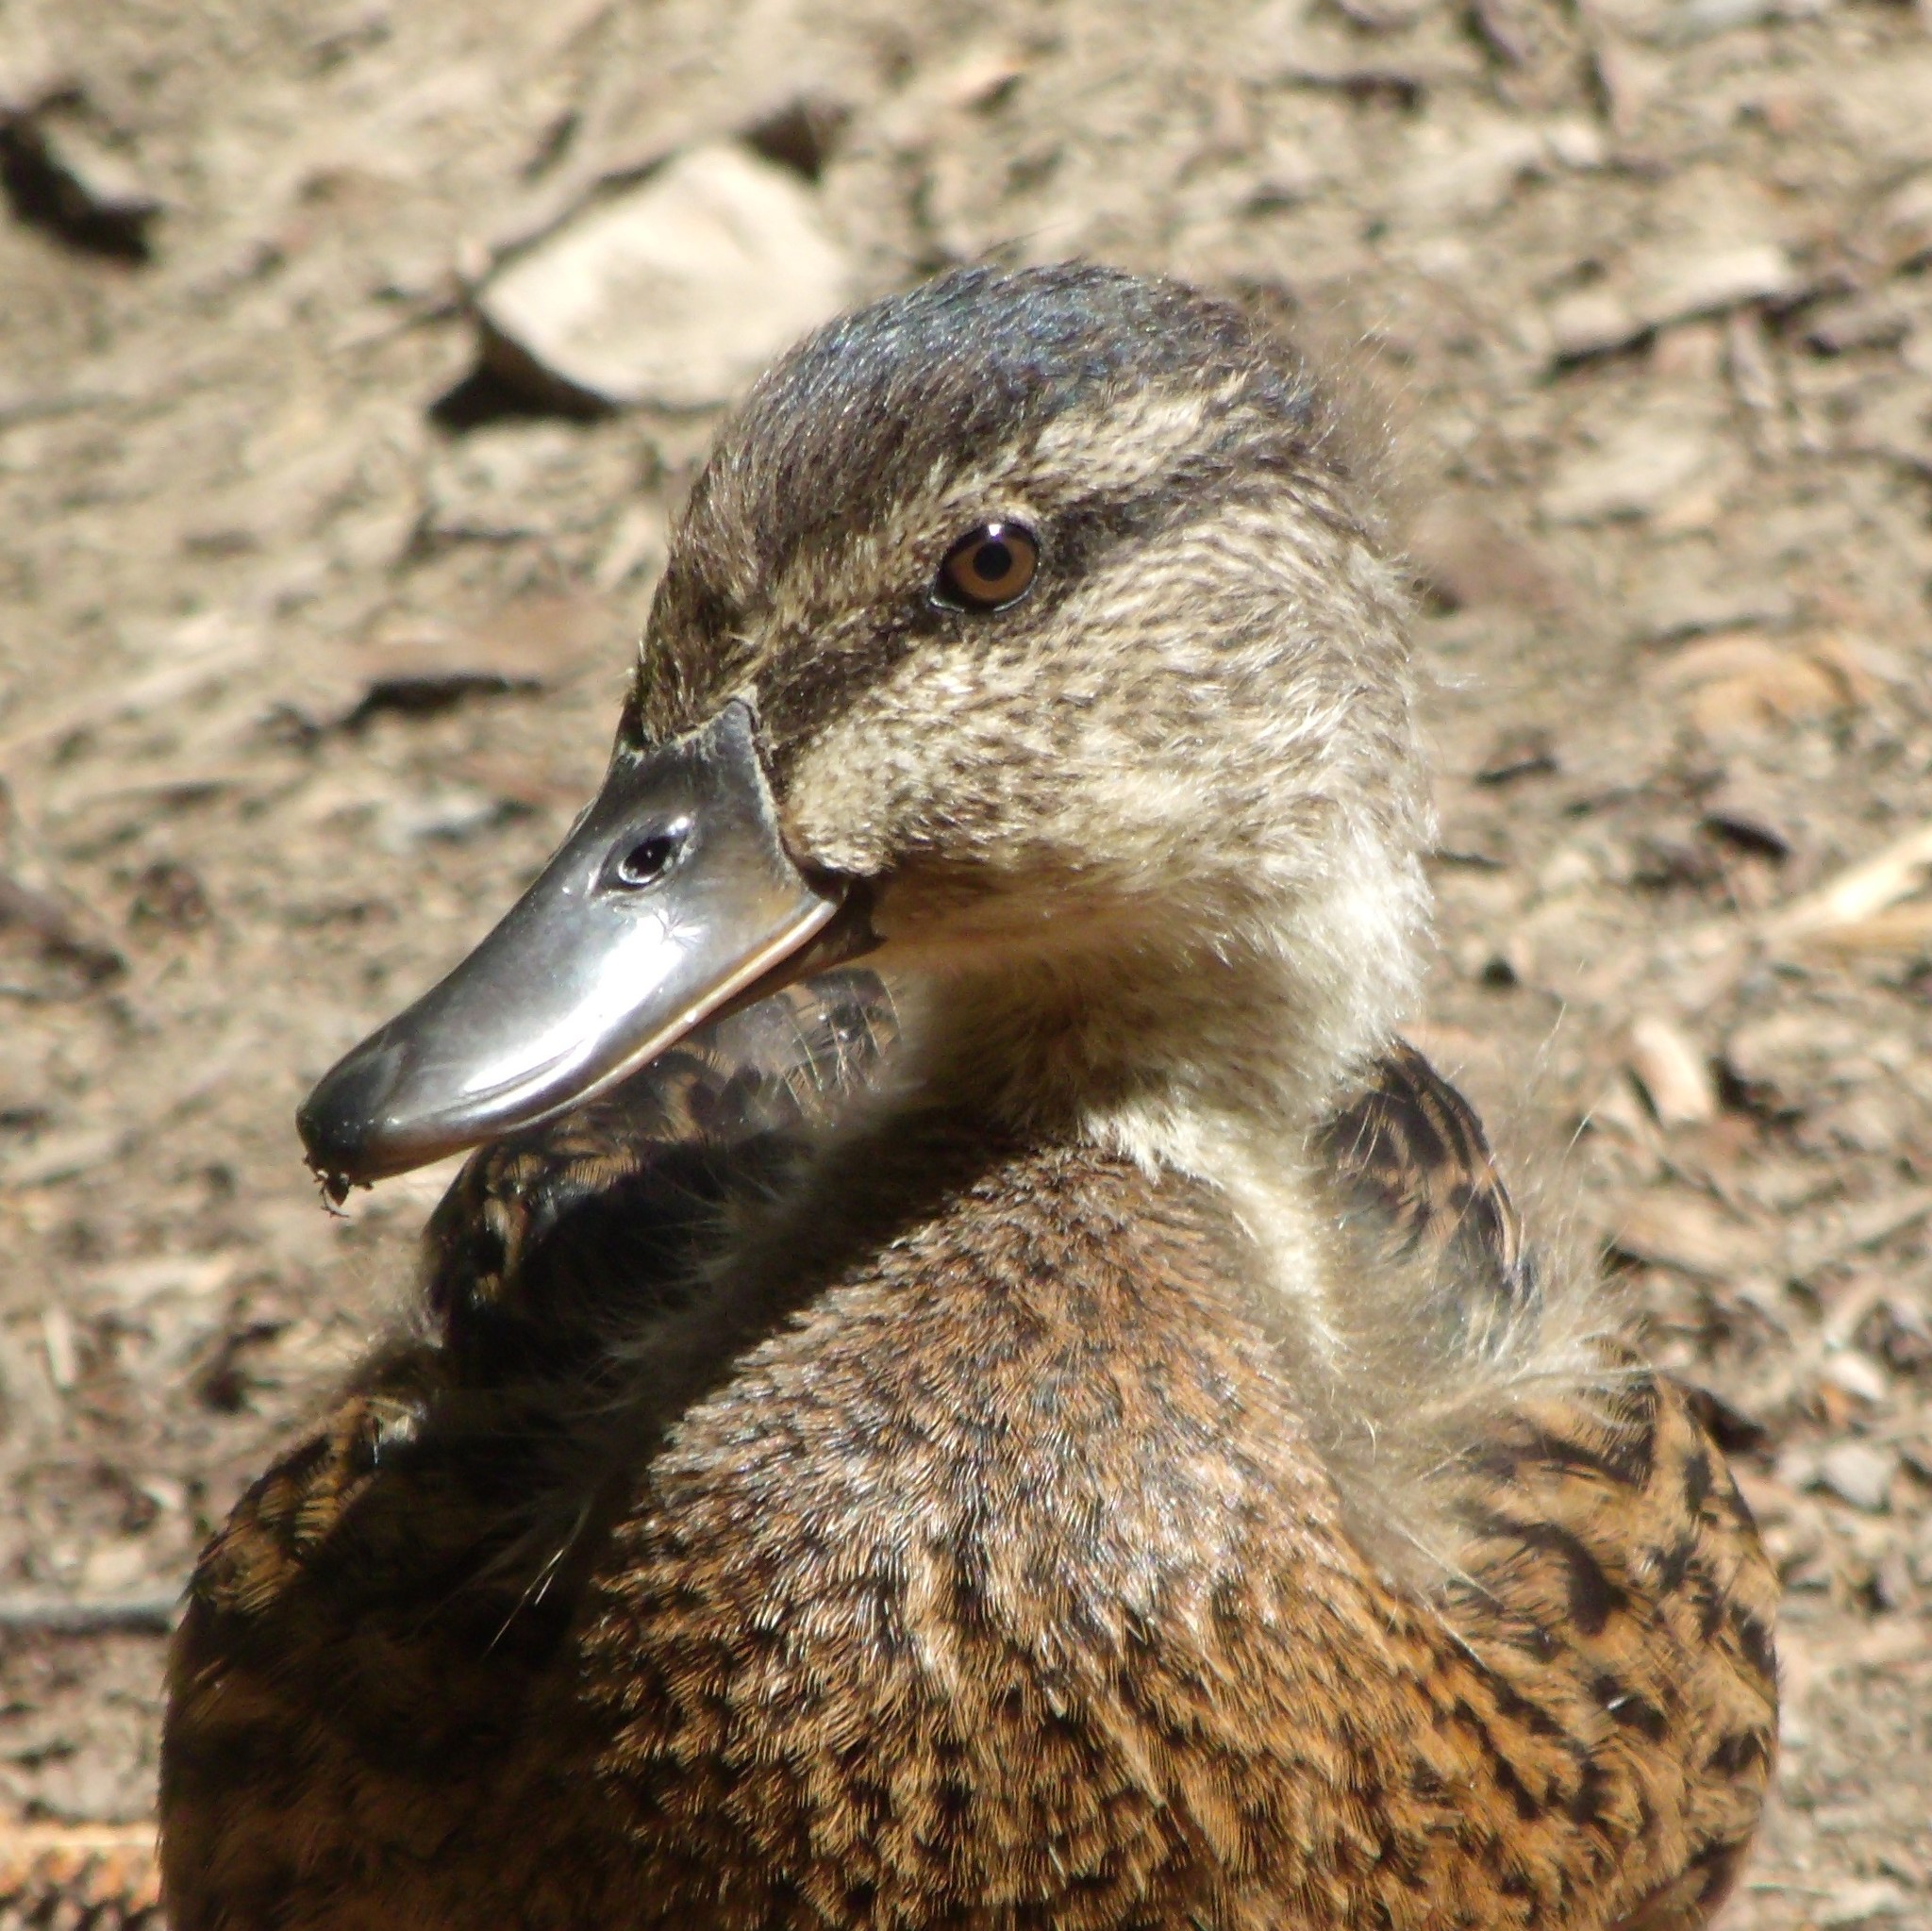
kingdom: Animalia
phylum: Chordata
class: Aves
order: Anseriformes
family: Anatidae
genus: Anas
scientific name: Anas platyrhynchos
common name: Mallard
